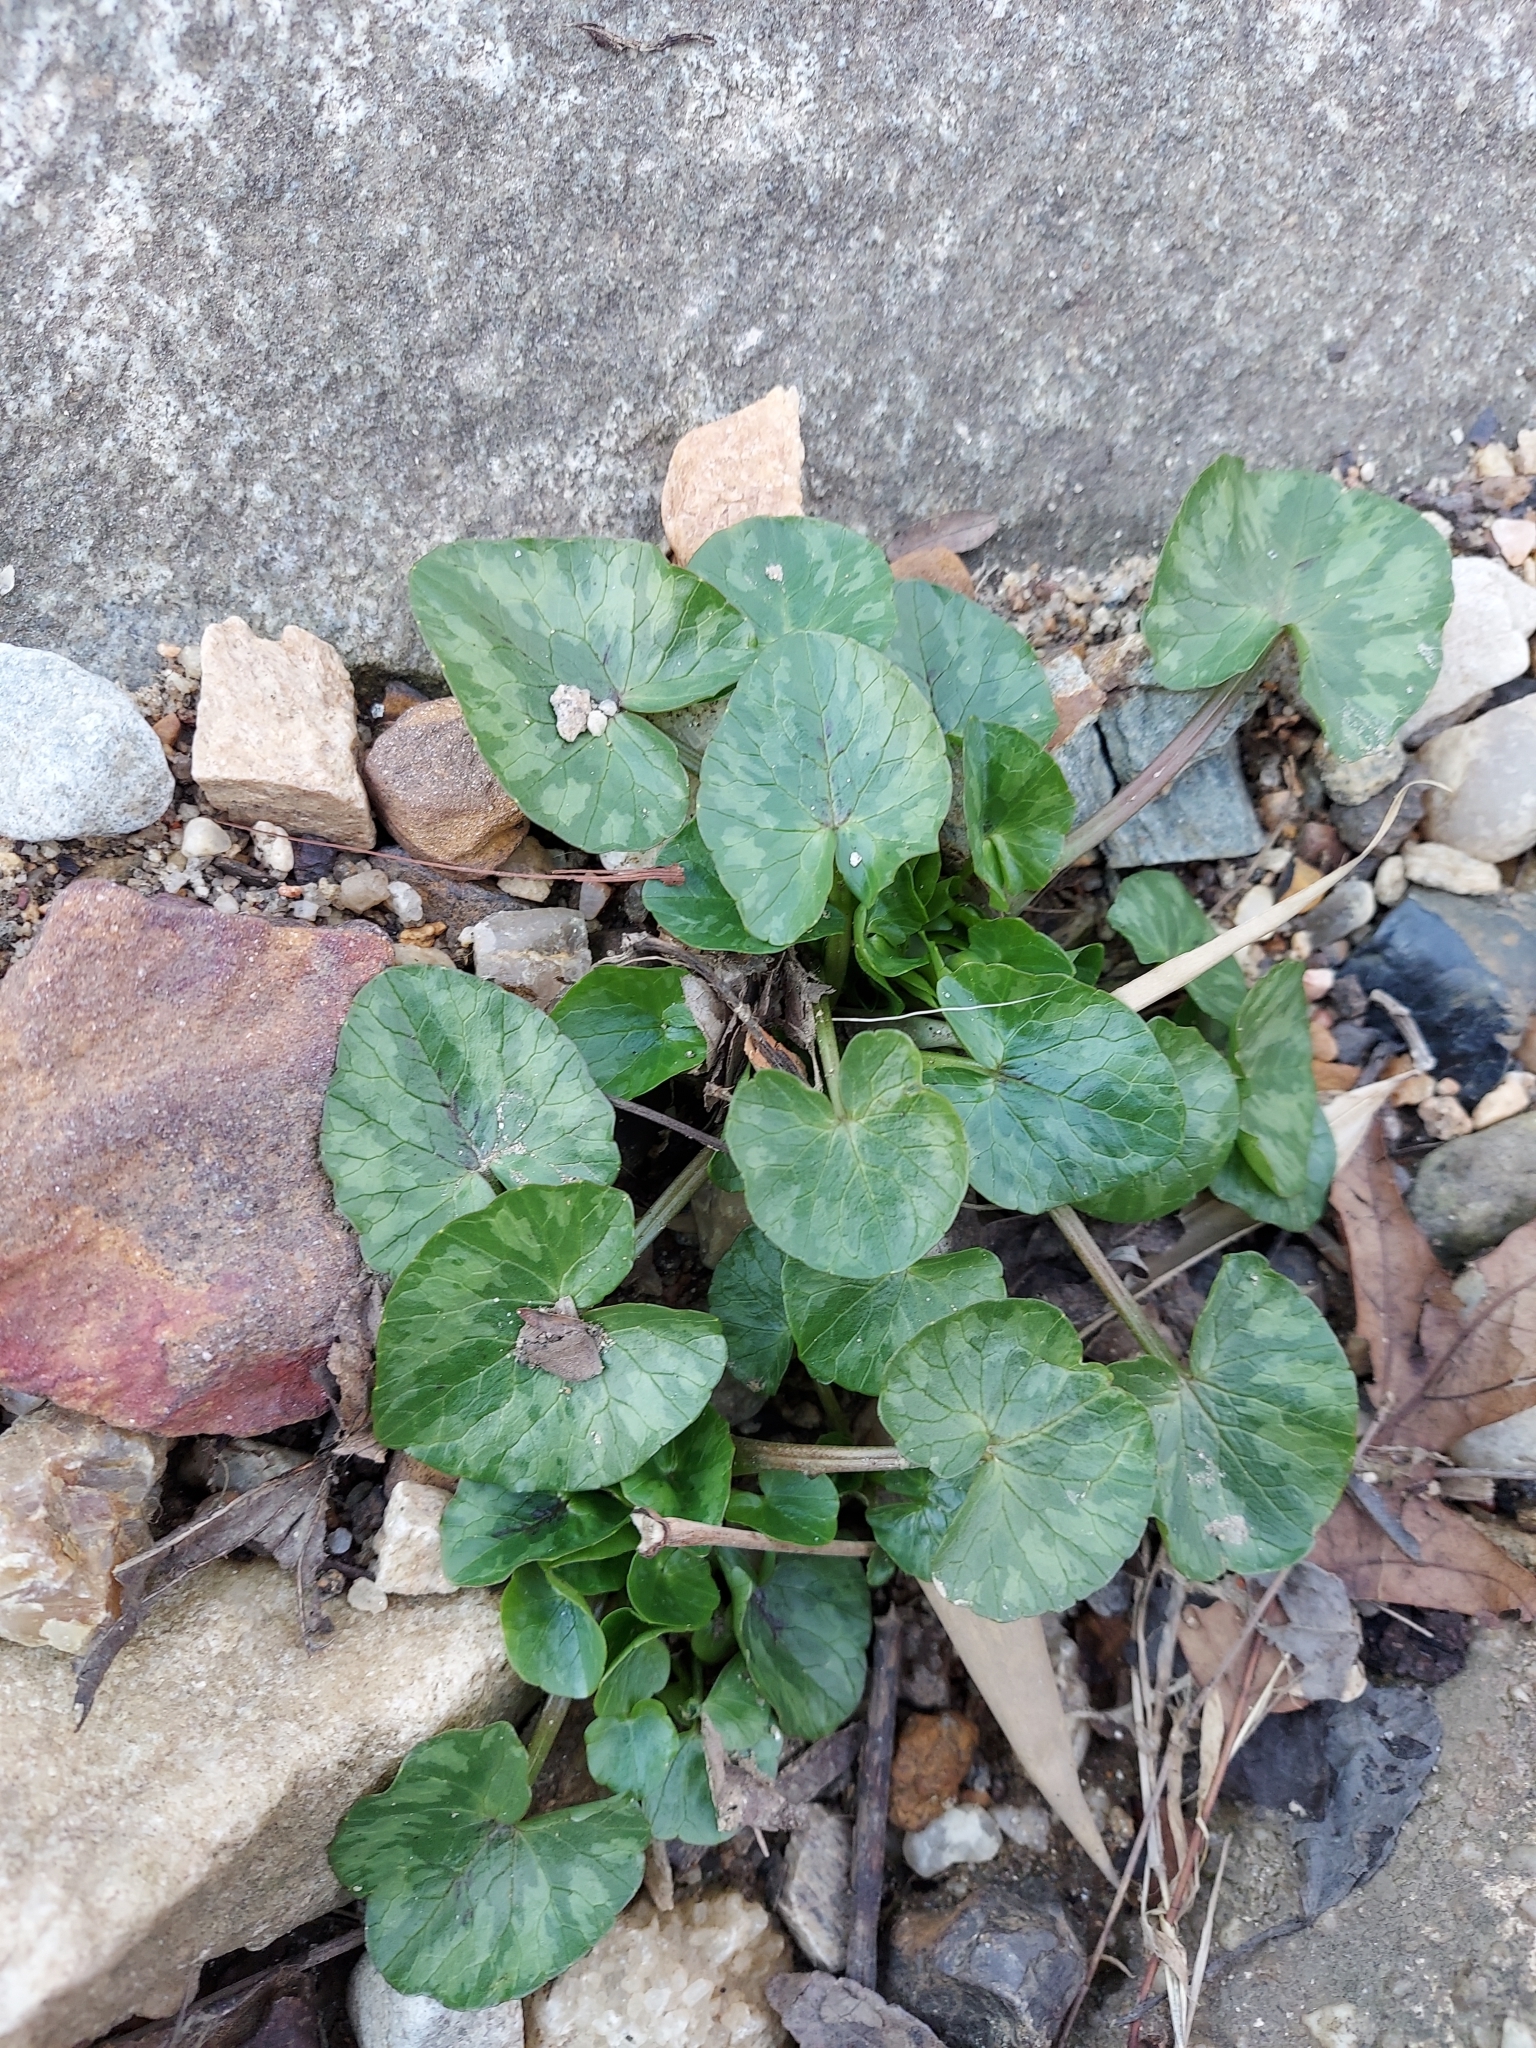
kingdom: Plantae
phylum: Tracheophyta
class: Magnoliopsida
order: Ranunculales
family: Ranunculaceae
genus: Ficaria
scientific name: Ficaria verna
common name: Lesser celandine
